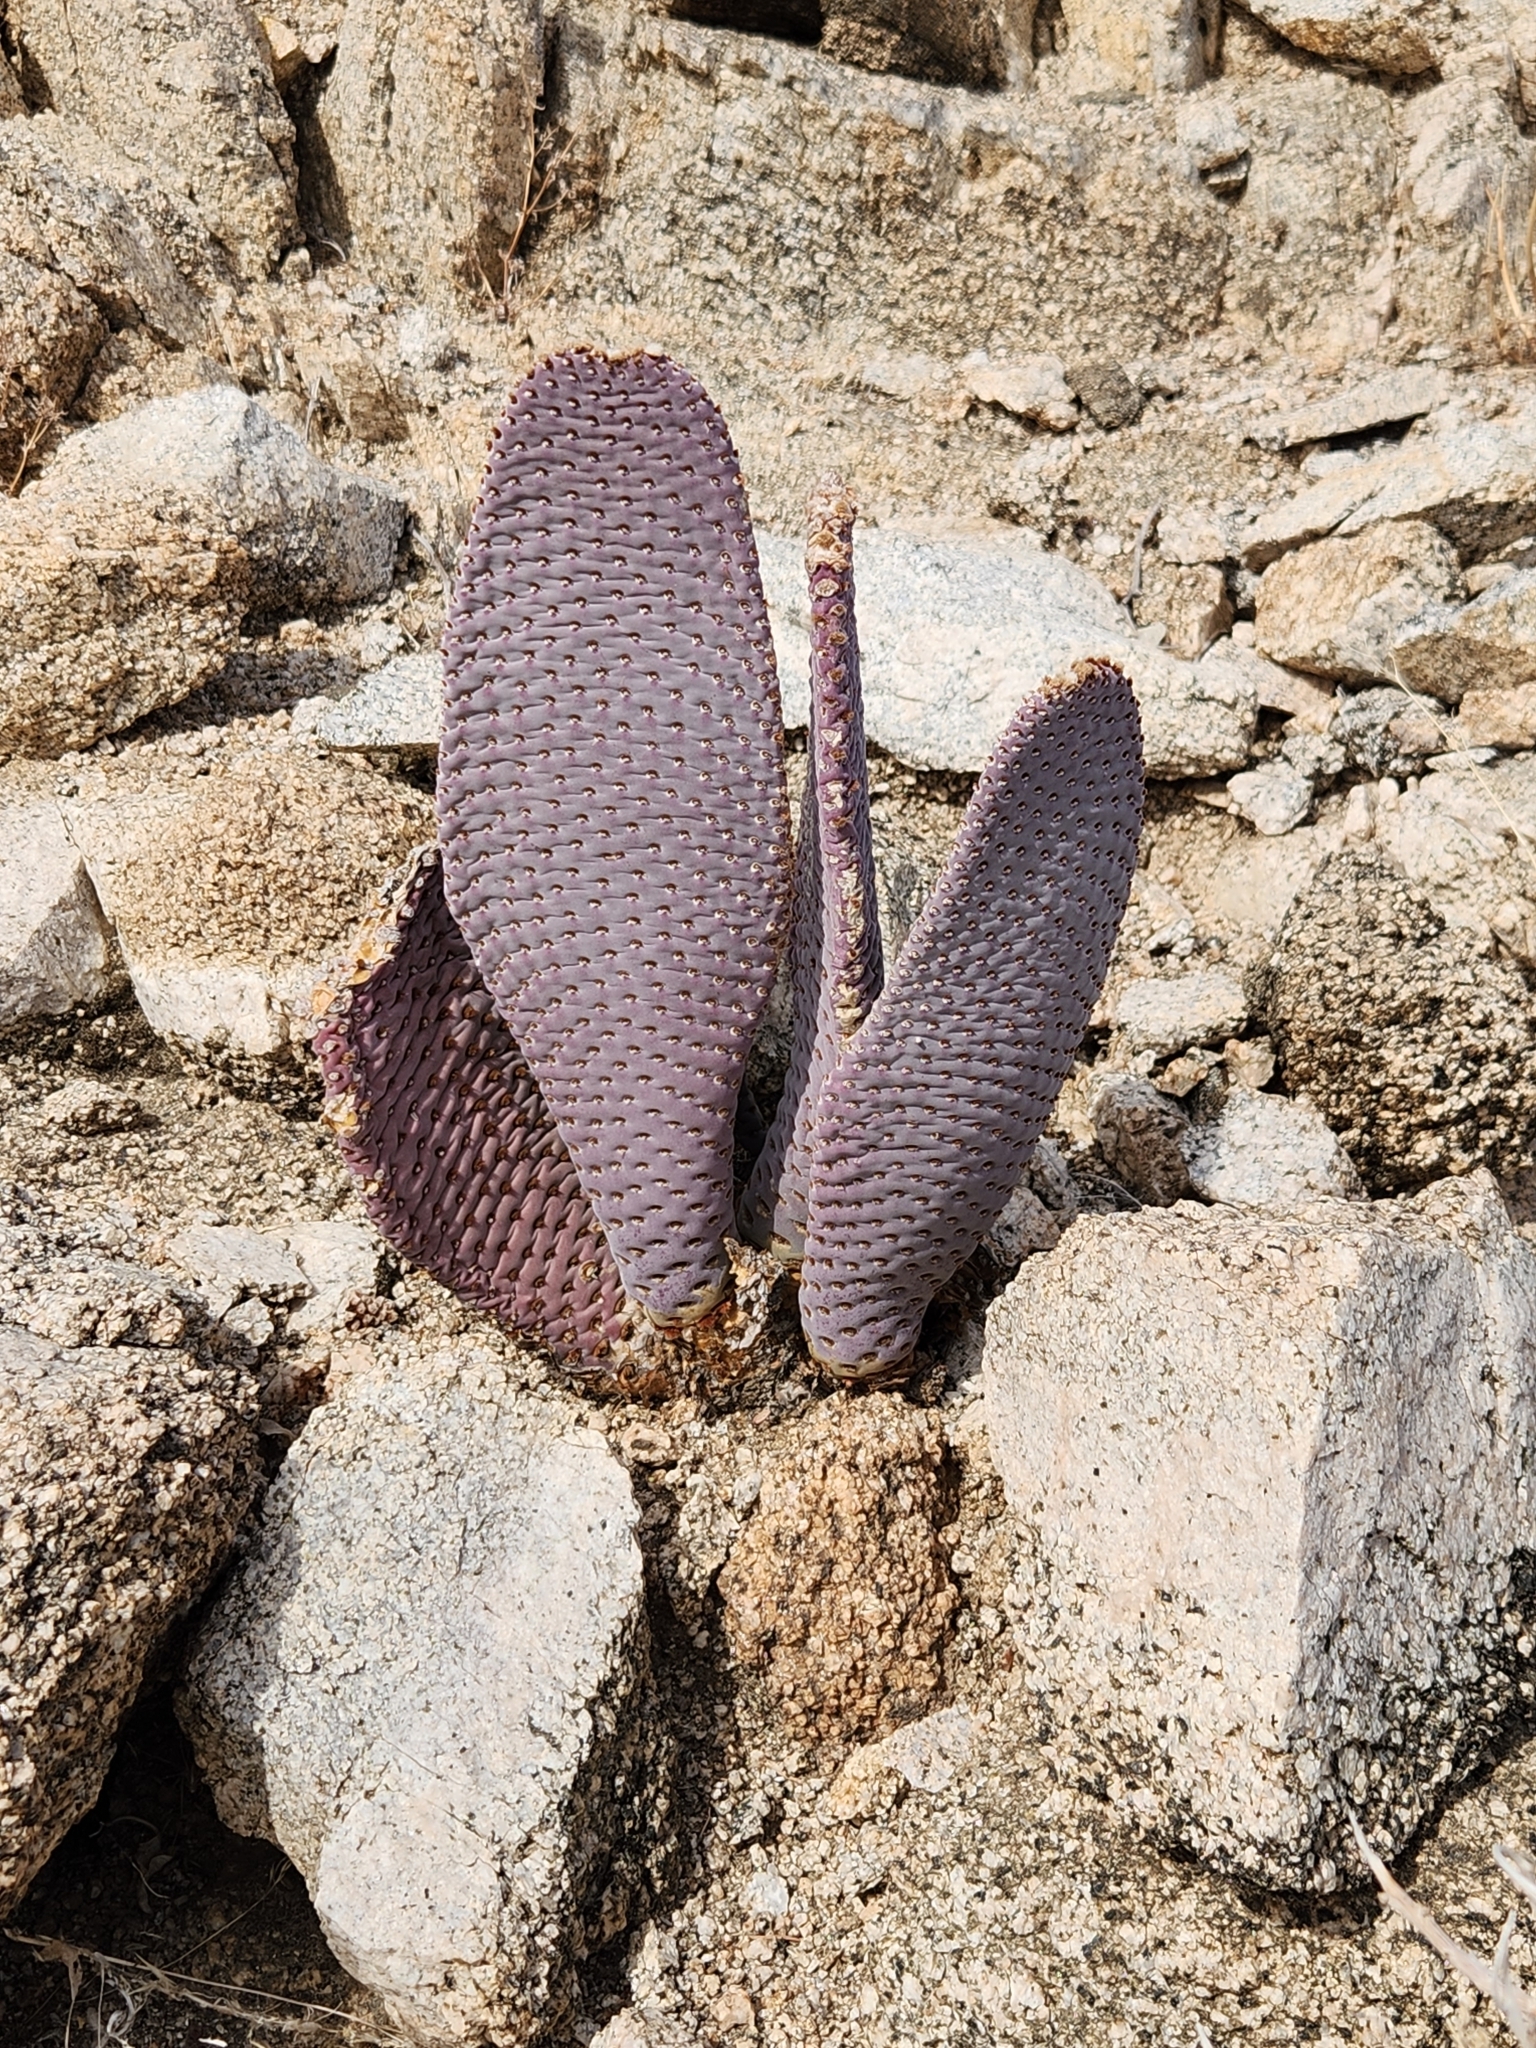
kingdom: Plantae
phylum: Tracheophyta
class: Magnoliopsida
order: Caryophyllales
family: Cactaceae
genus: Opuntia
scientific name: Opuntia basilaris
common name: Beavertail prickly-pear
